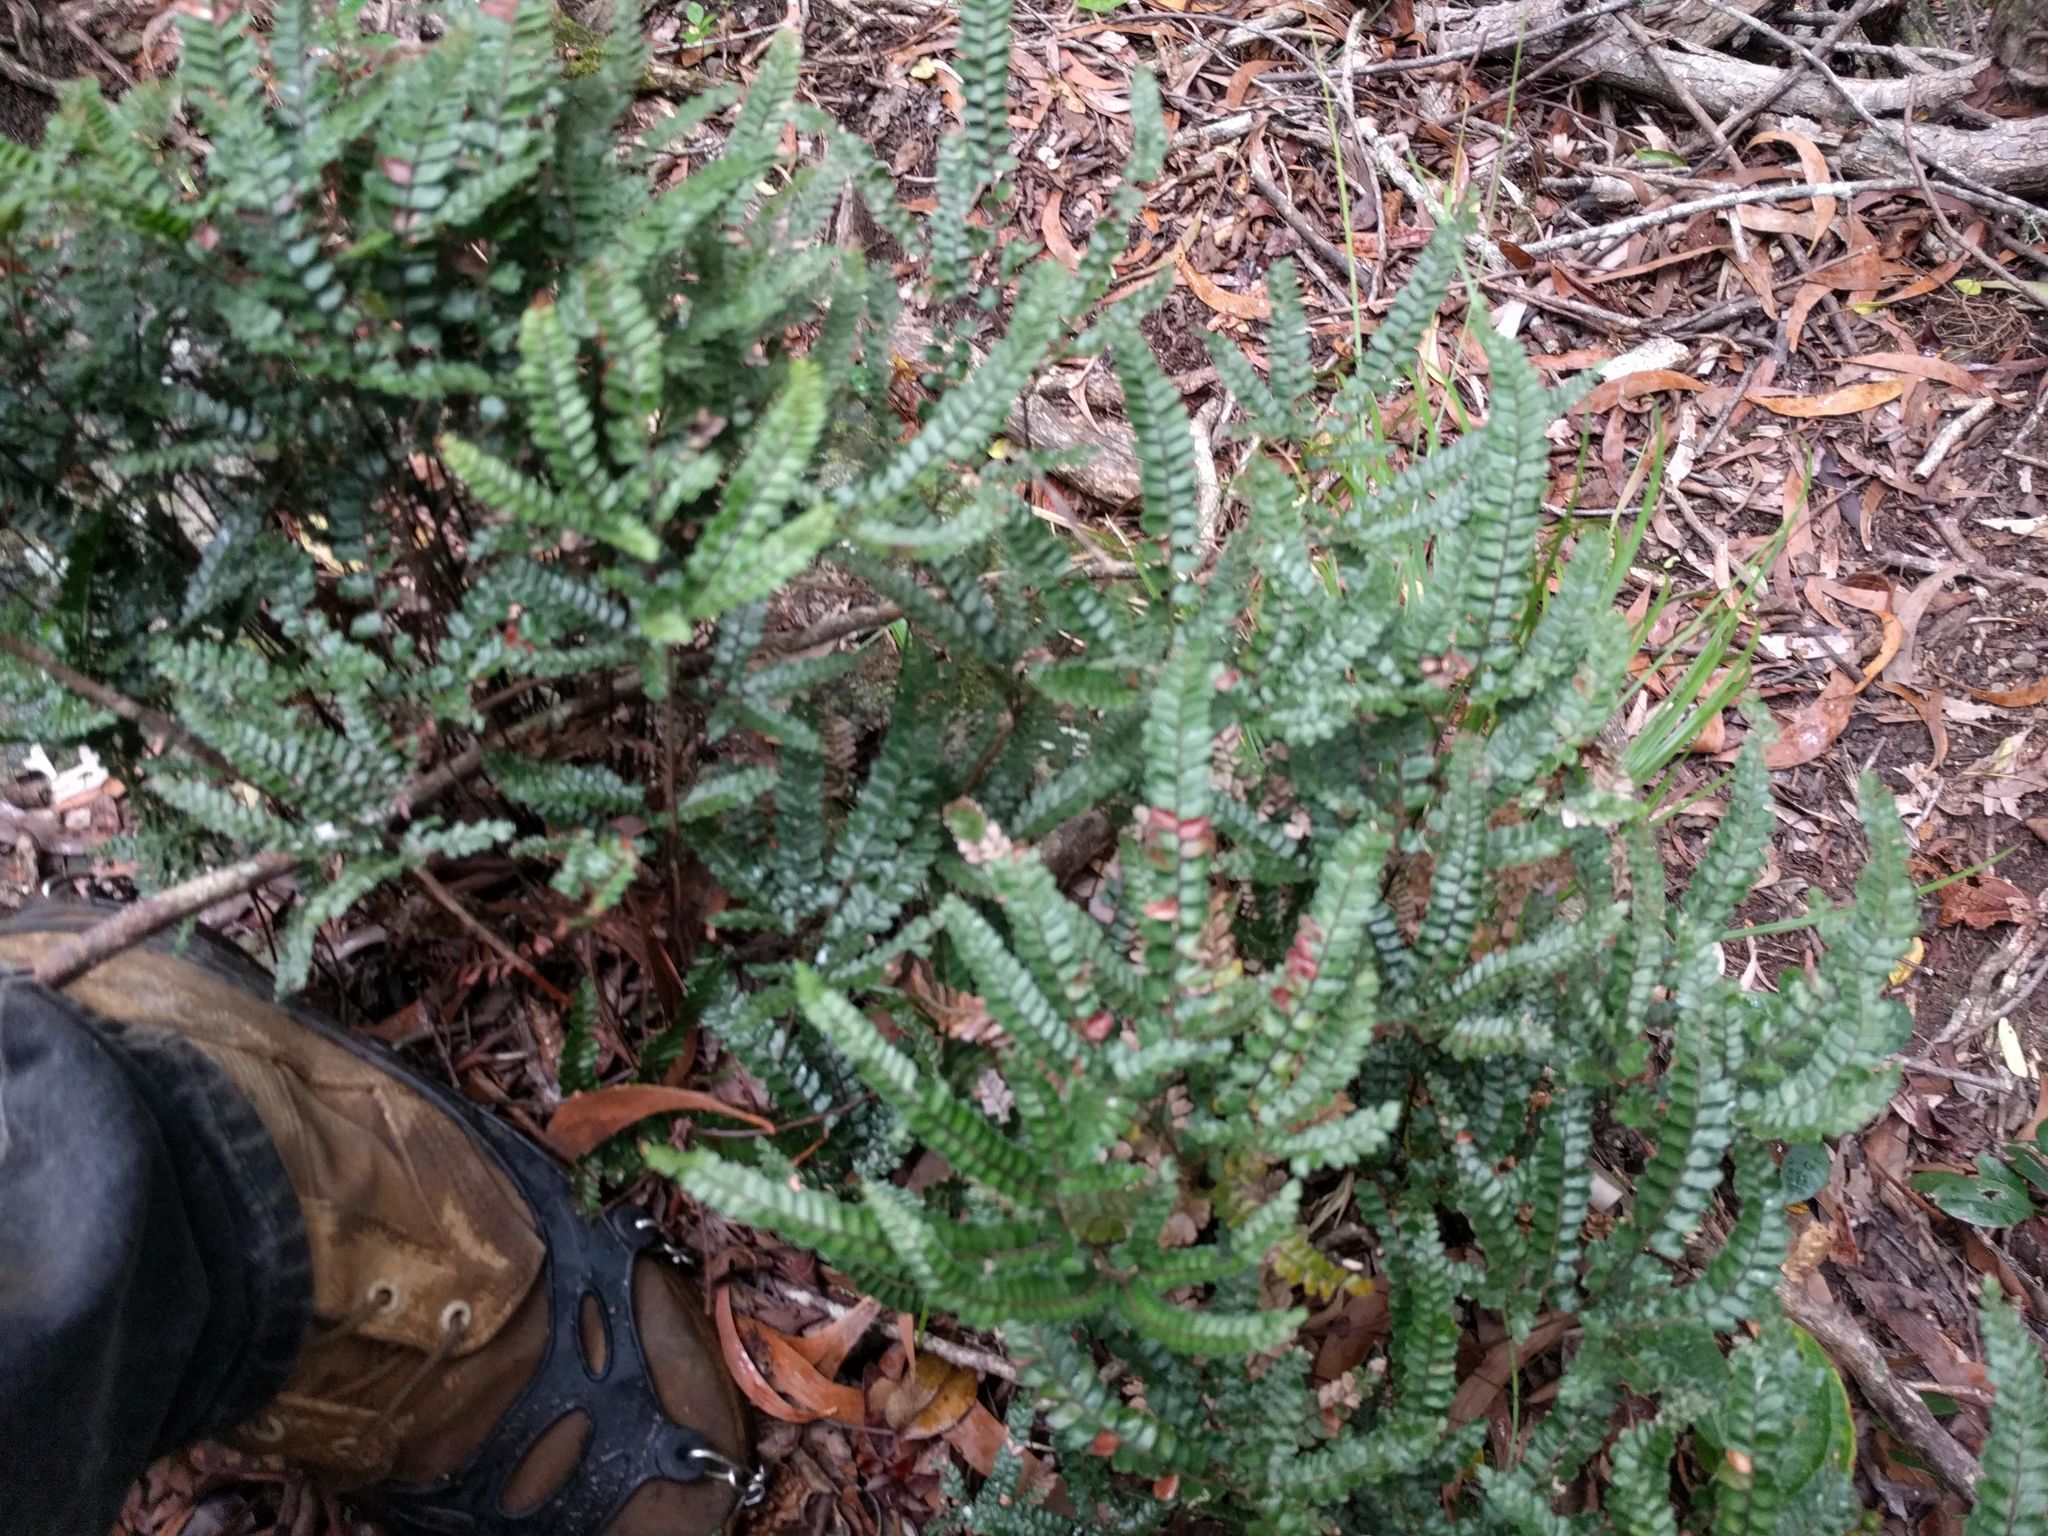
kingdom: Plantae
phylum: Tracheophyta
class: Polypodiopsida
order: Polypodiales
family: Pteridaceae
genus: Adiantum
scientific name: Adiantum hispidulum
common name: Rough maidenhair
